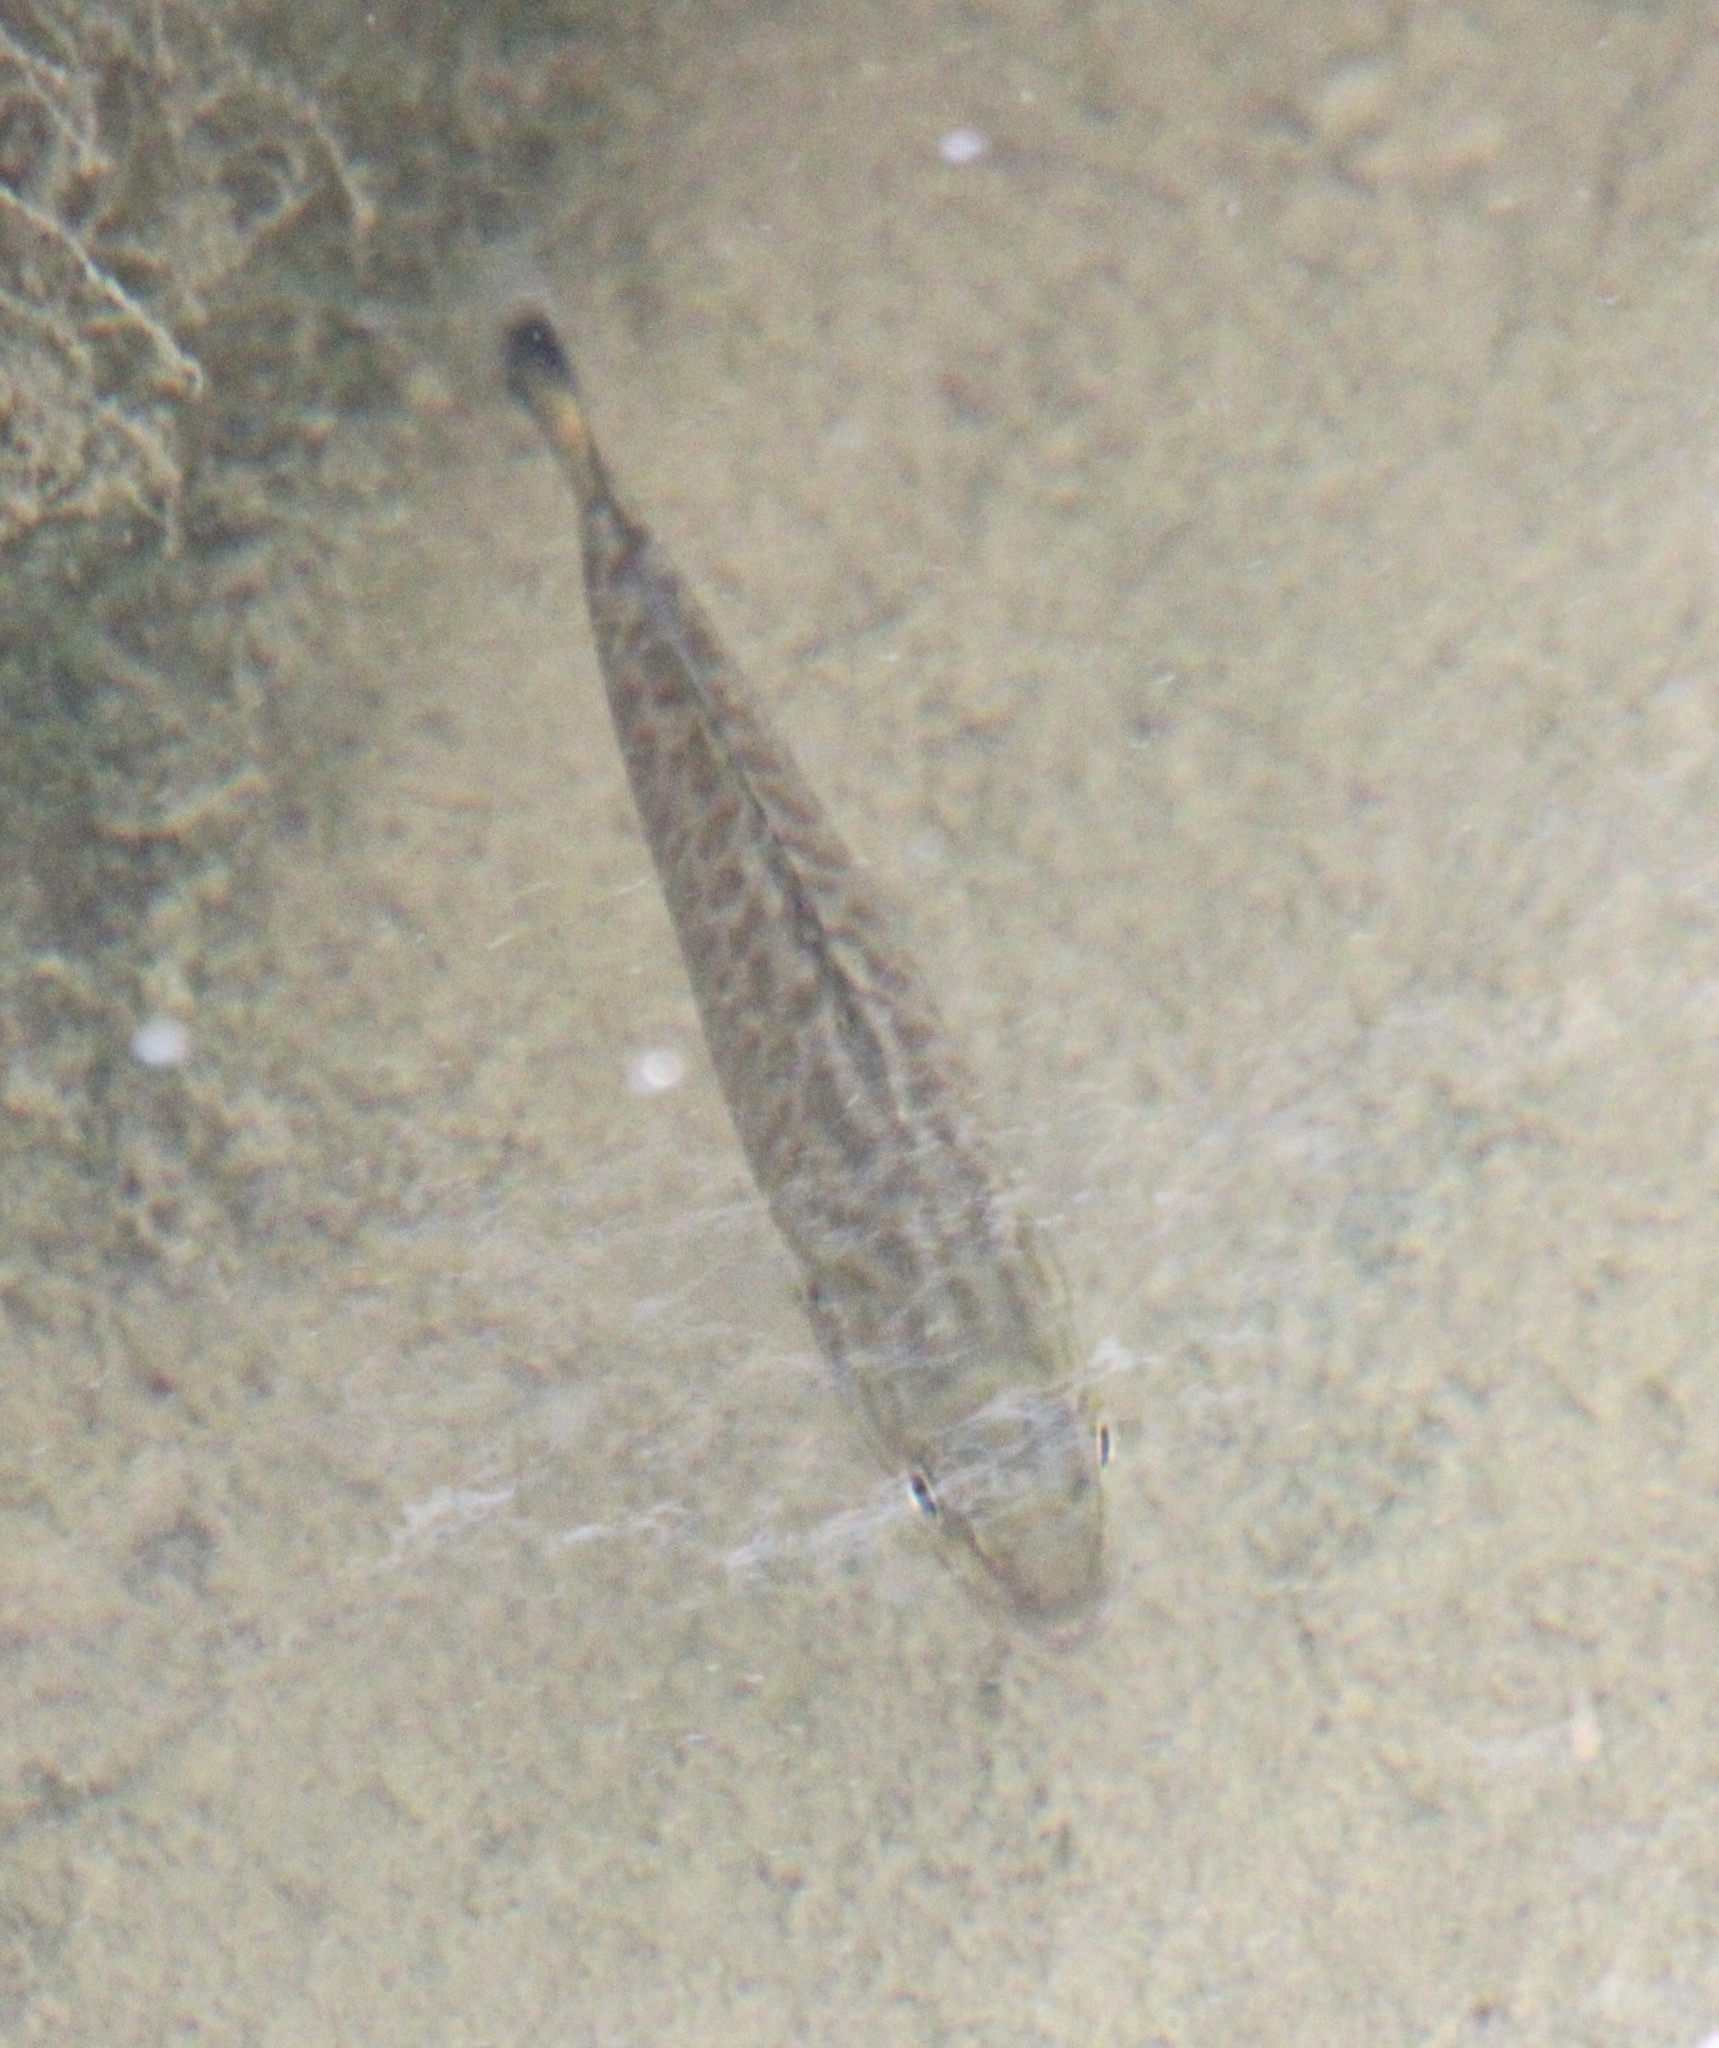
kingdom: Animalia
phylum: Chordata
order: Perciformes
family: Centrarchidae
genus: Micropterus
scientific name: Micropterus dolomieu
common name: Smallmouth bass
